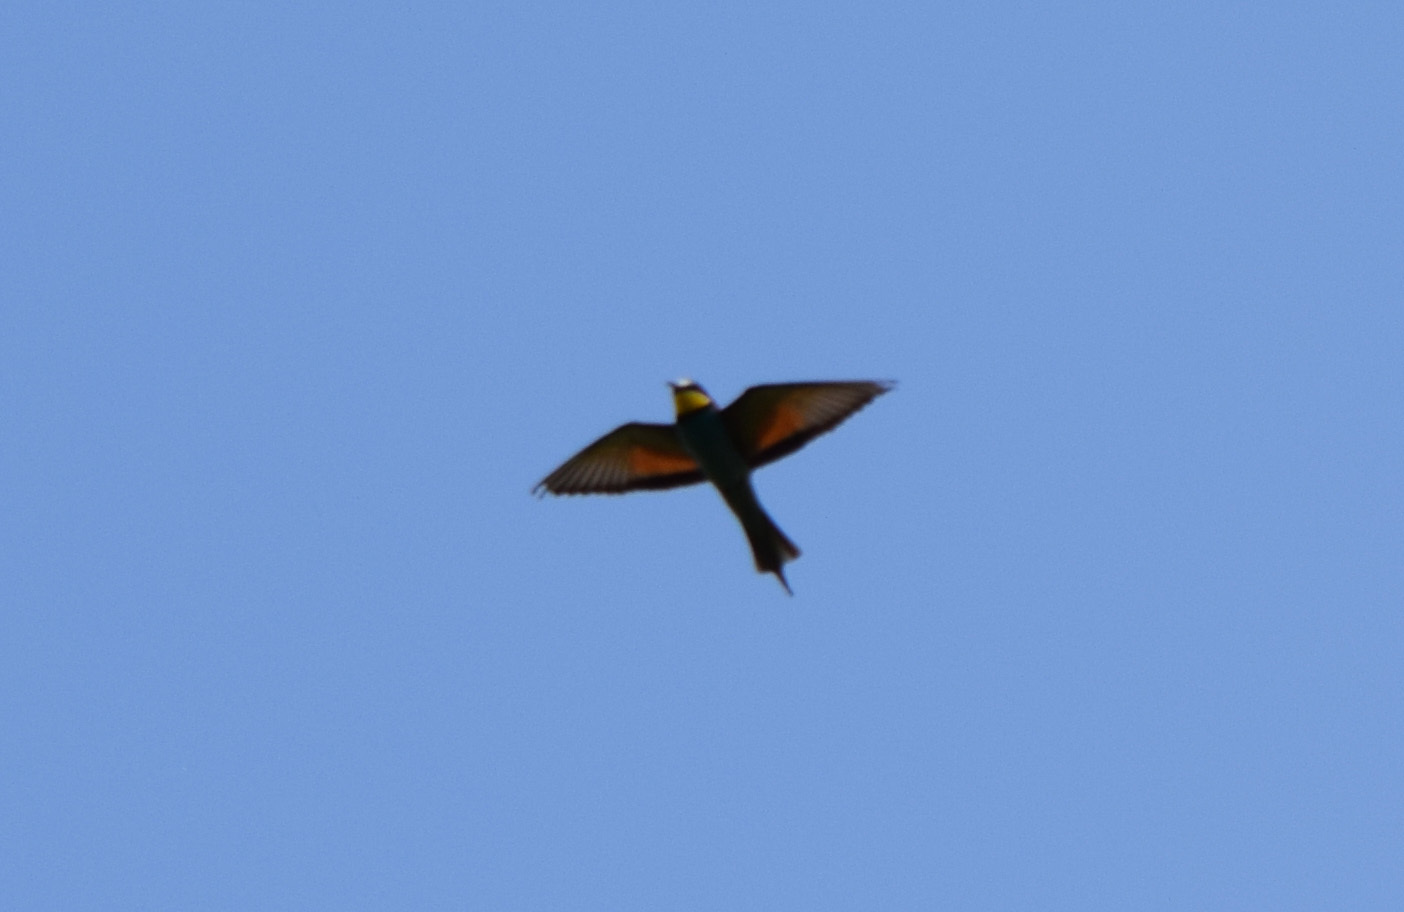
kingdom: Animalia
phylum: Chordata
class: Aves
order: Coraciiformes
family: Meropidae
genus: Merops
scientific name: Merops apiaster
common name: European bee-eater
